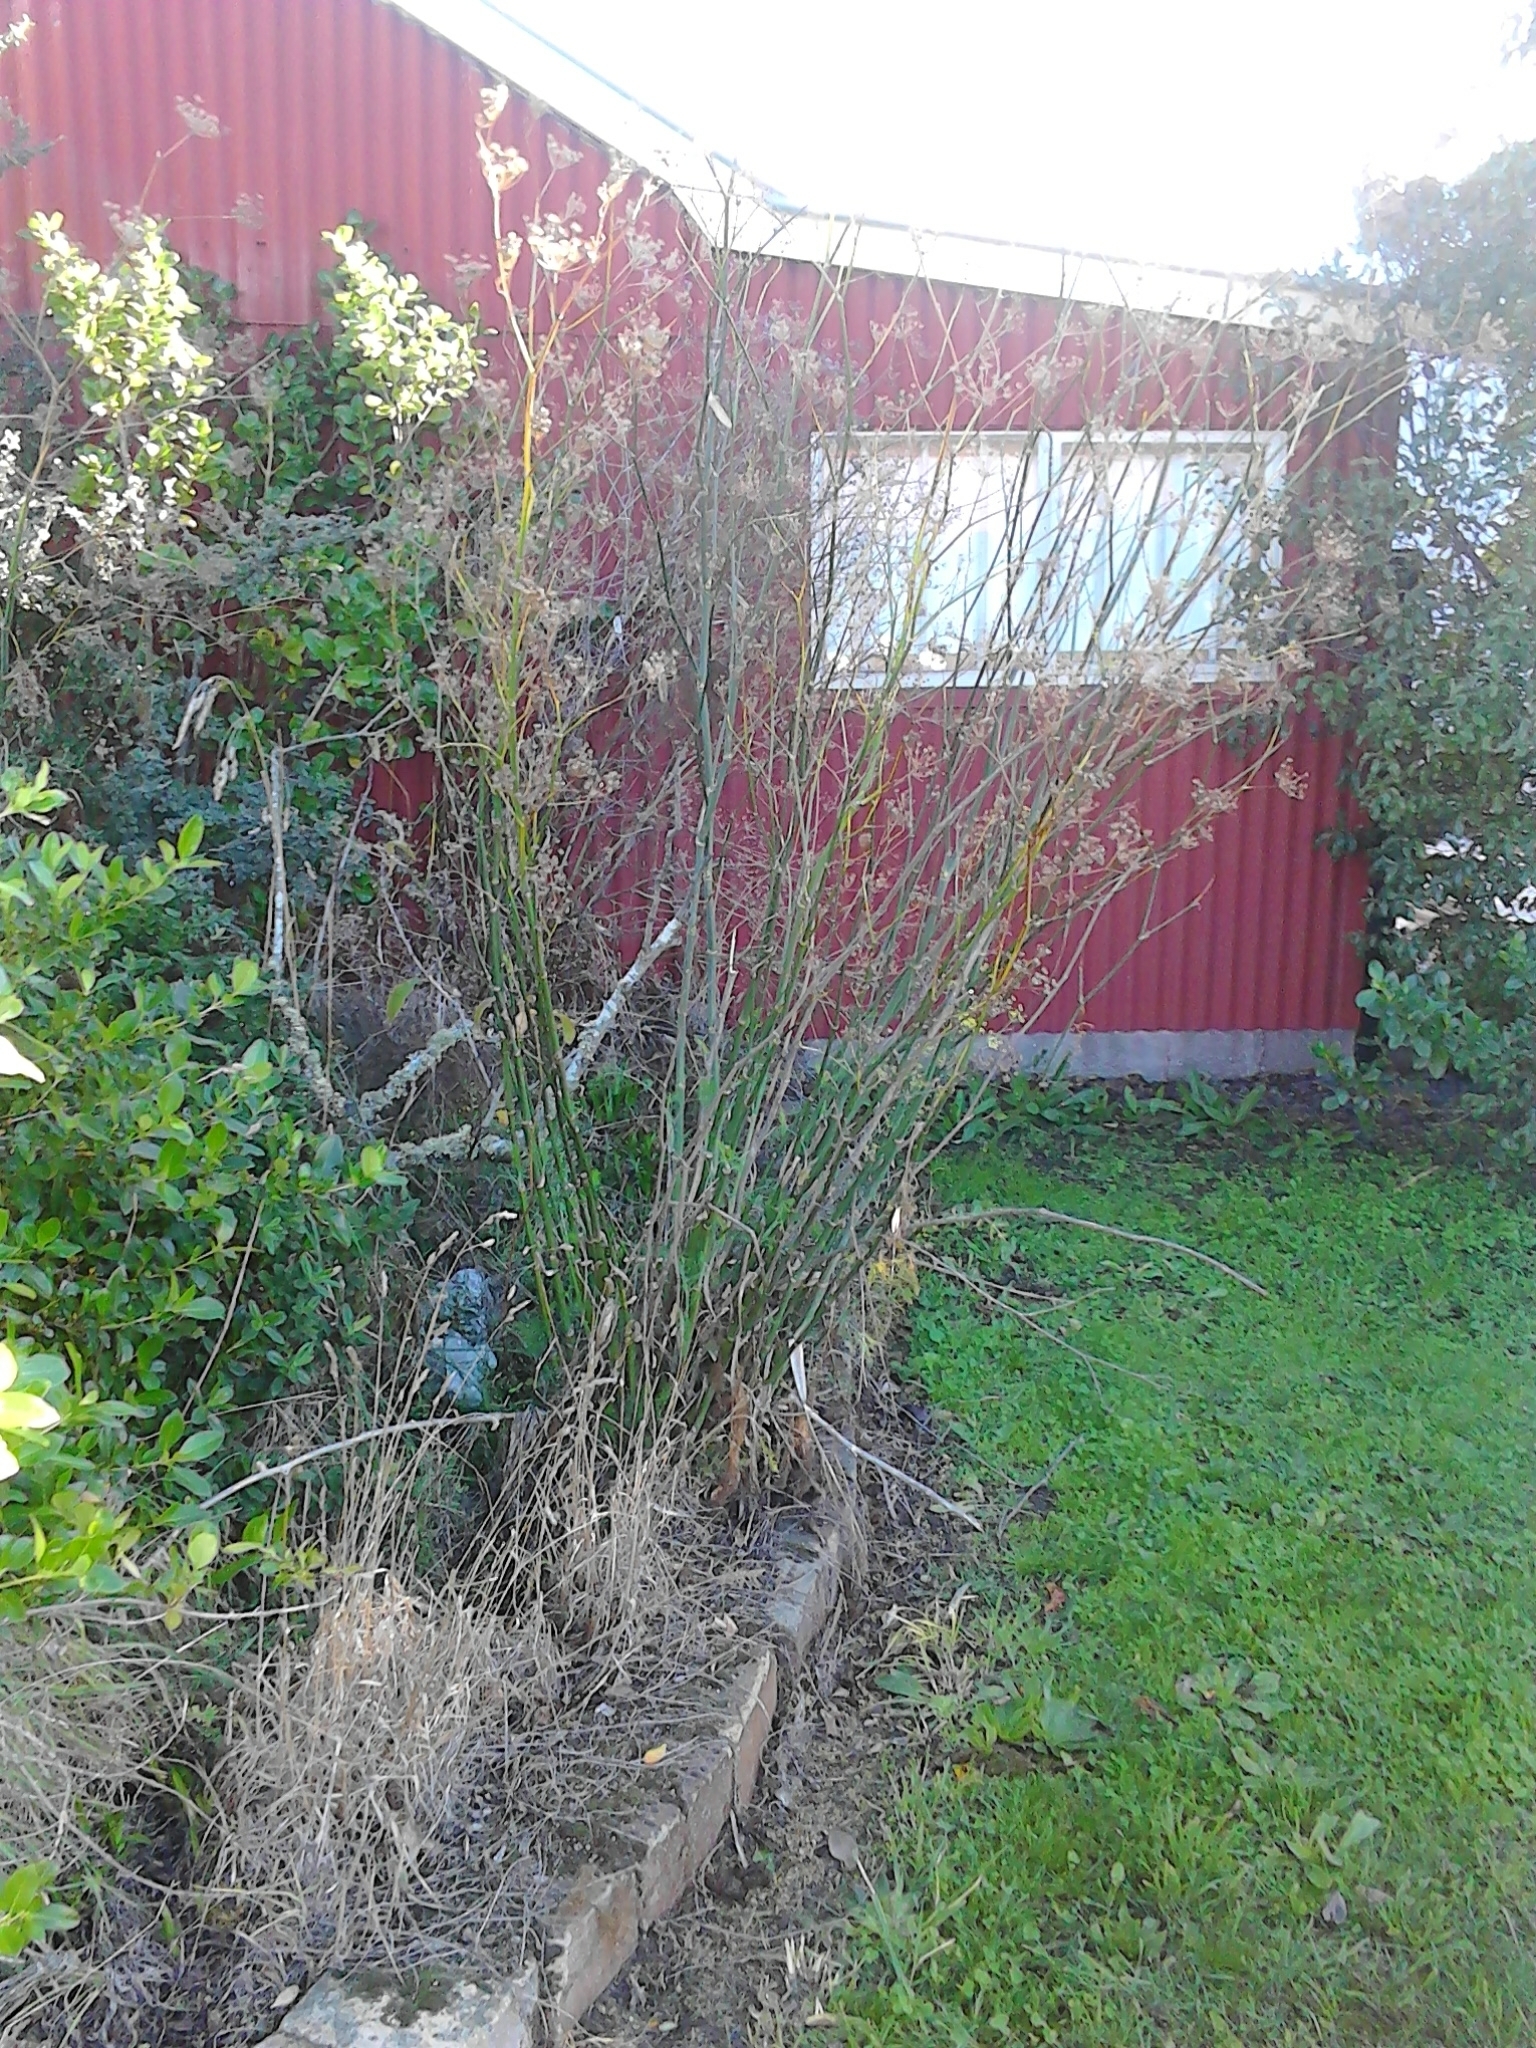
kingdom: Plantae
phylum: Tracheophyta
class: Magnoliopsida
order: Apiales
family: Apiaceae
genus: Foeniculum
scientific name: Foeniculum vulgare
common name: Fennel
